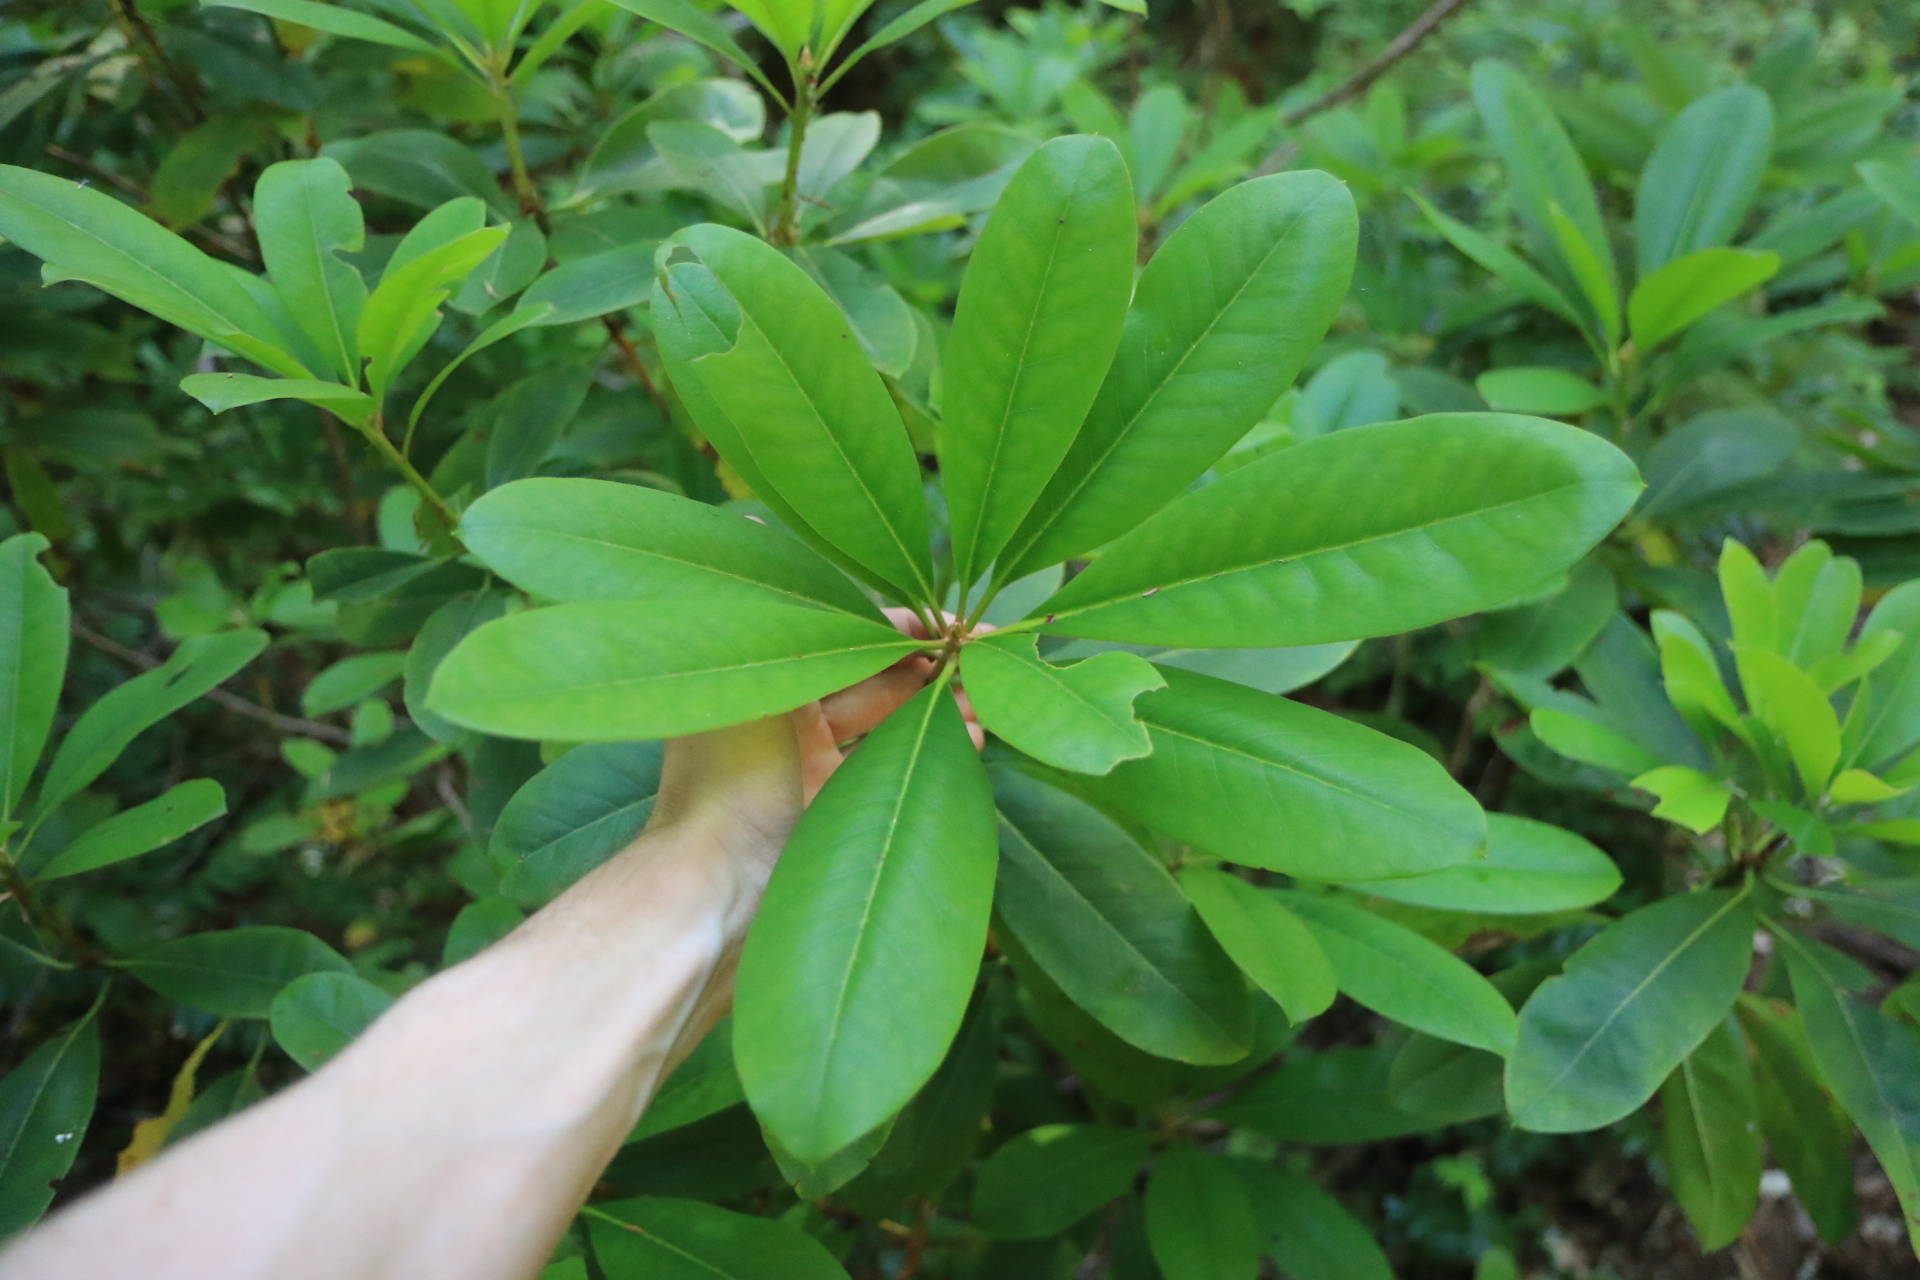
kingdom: Plantae
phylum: Tracheophyta
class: Magnoliopsida
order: Ericales
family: Ericaceae
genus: Rhododendron
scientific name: Rhododendron macrophyllum
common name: California rose bay
